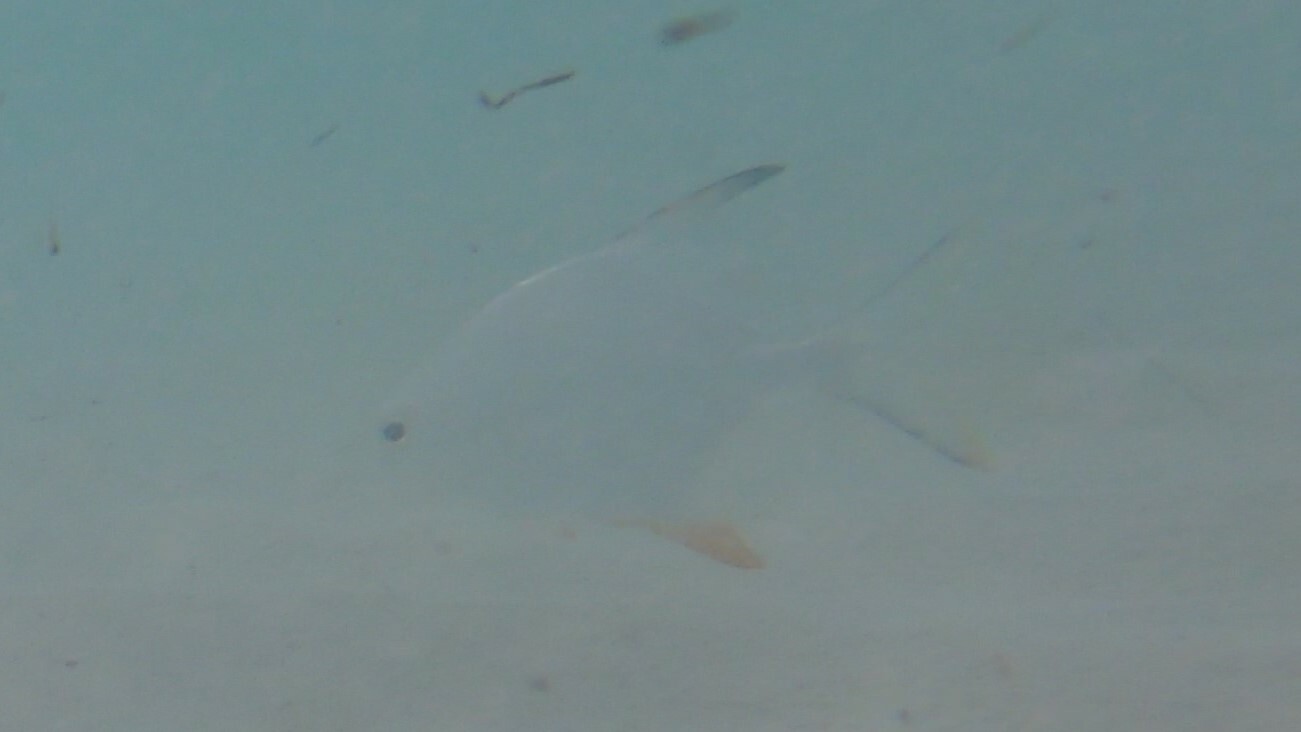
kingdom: Animalia
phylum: Chordata
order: Perciformes
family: Carangidae
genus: Trachinotus
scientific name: Trachinotus falcatus
